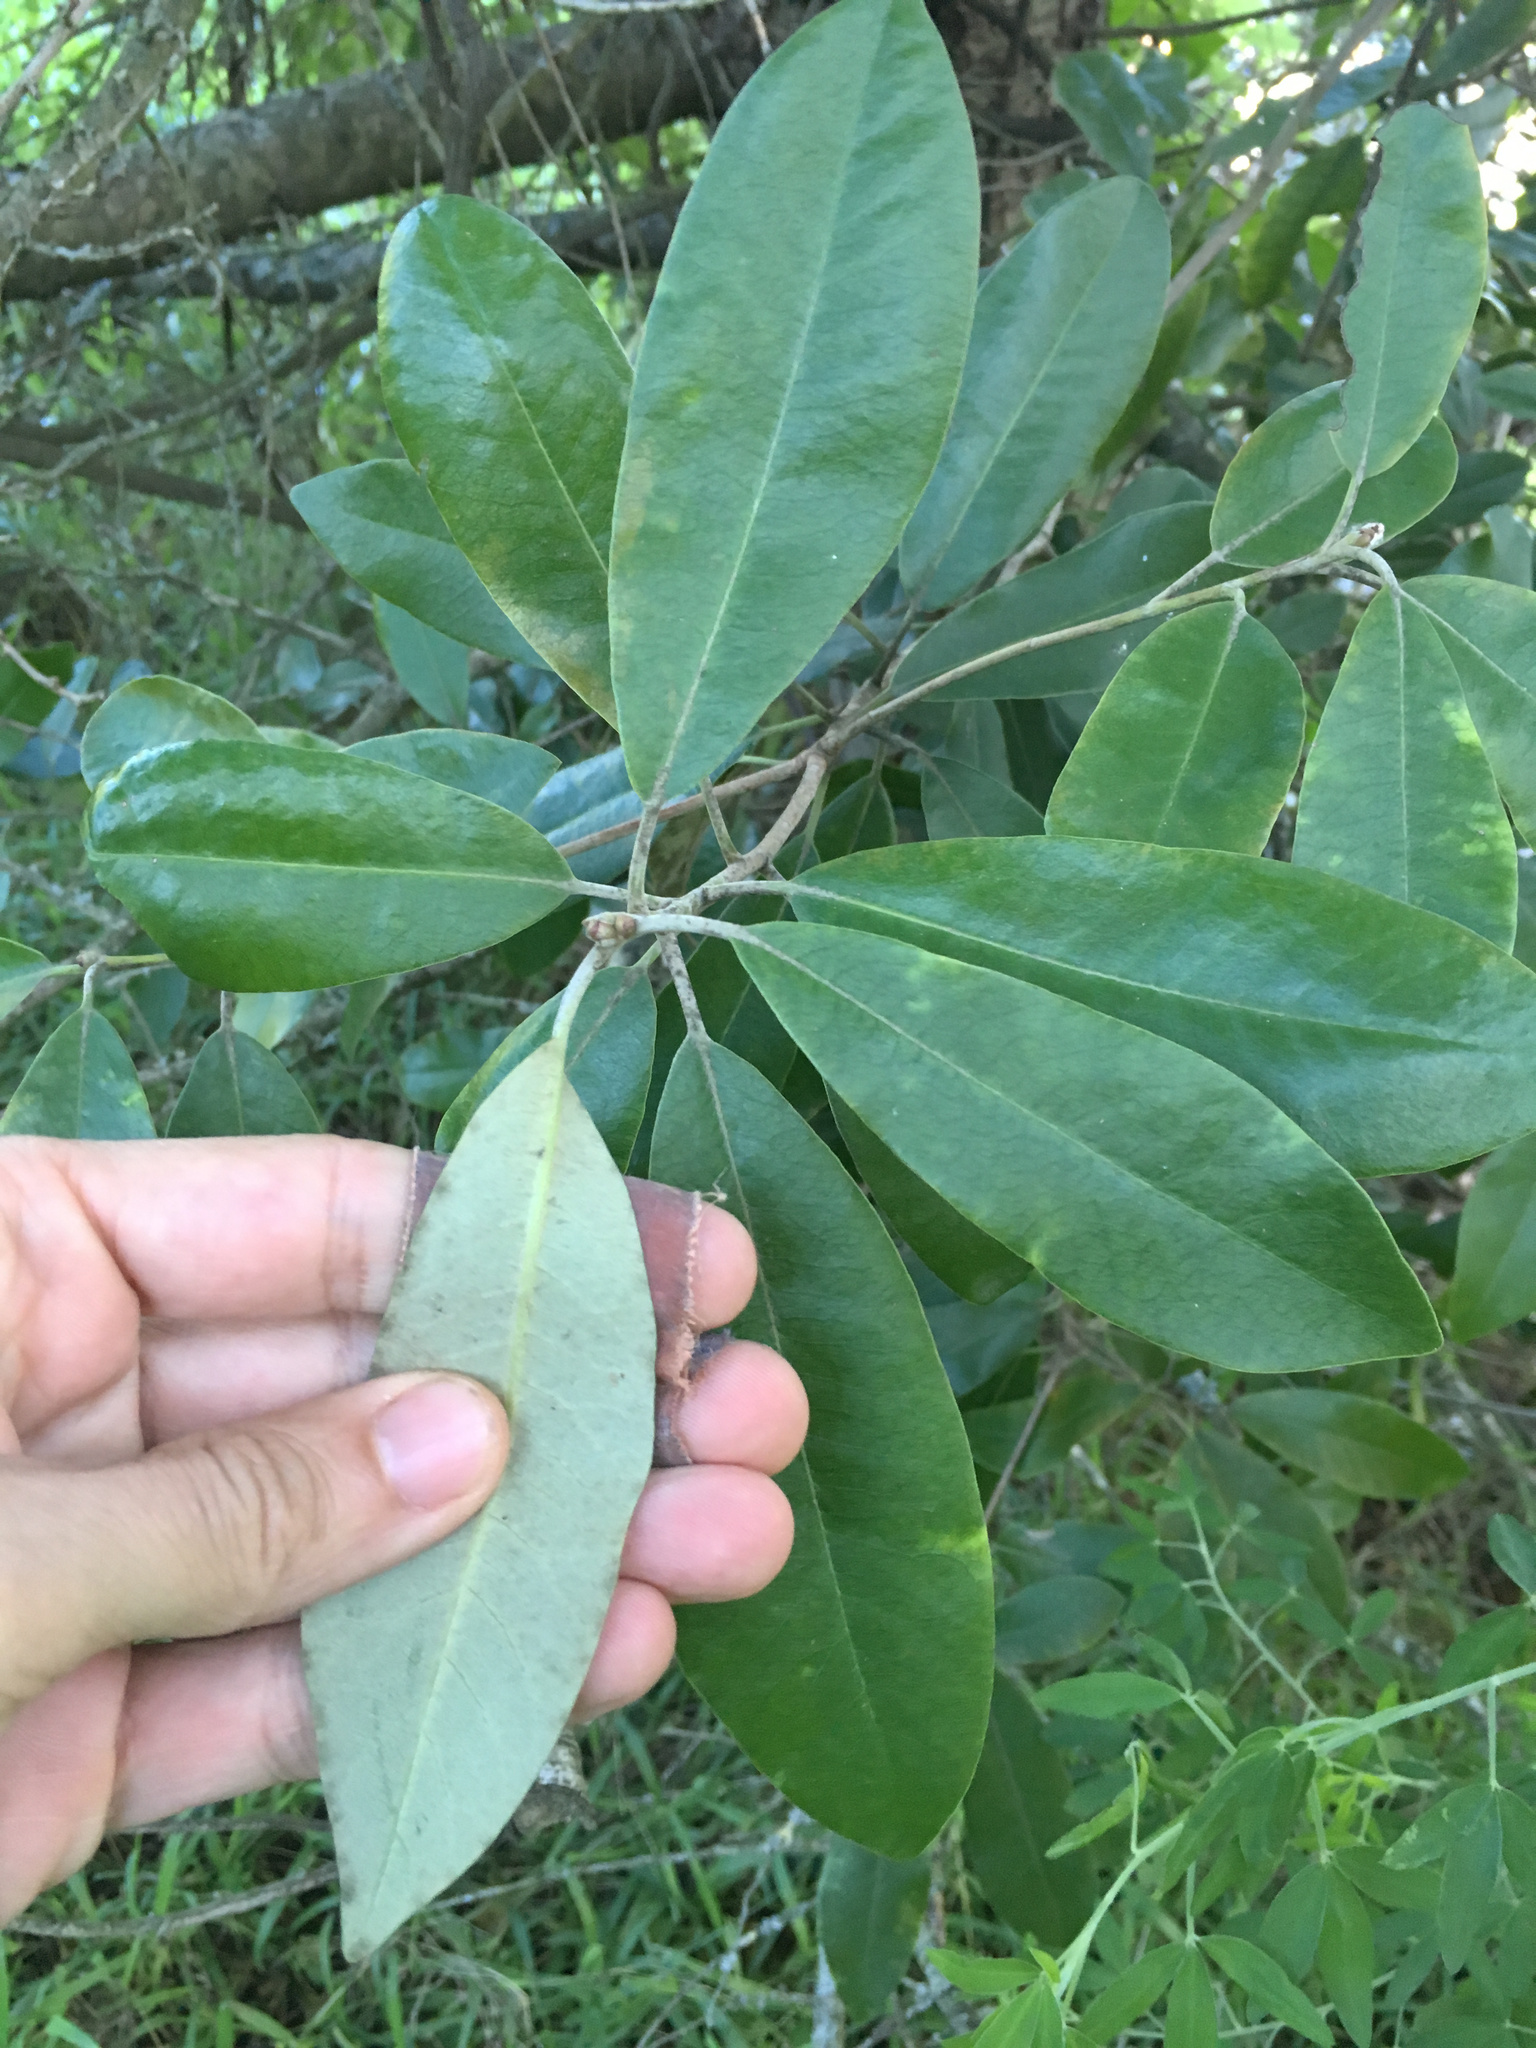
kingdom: Plantae
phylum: Tracheophyta
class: Magnoliopsida
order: Apiales
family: Pittosporaceae
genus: Pittosporum
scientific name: Pittosporum ralphii
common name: Ralph's desertwillow
